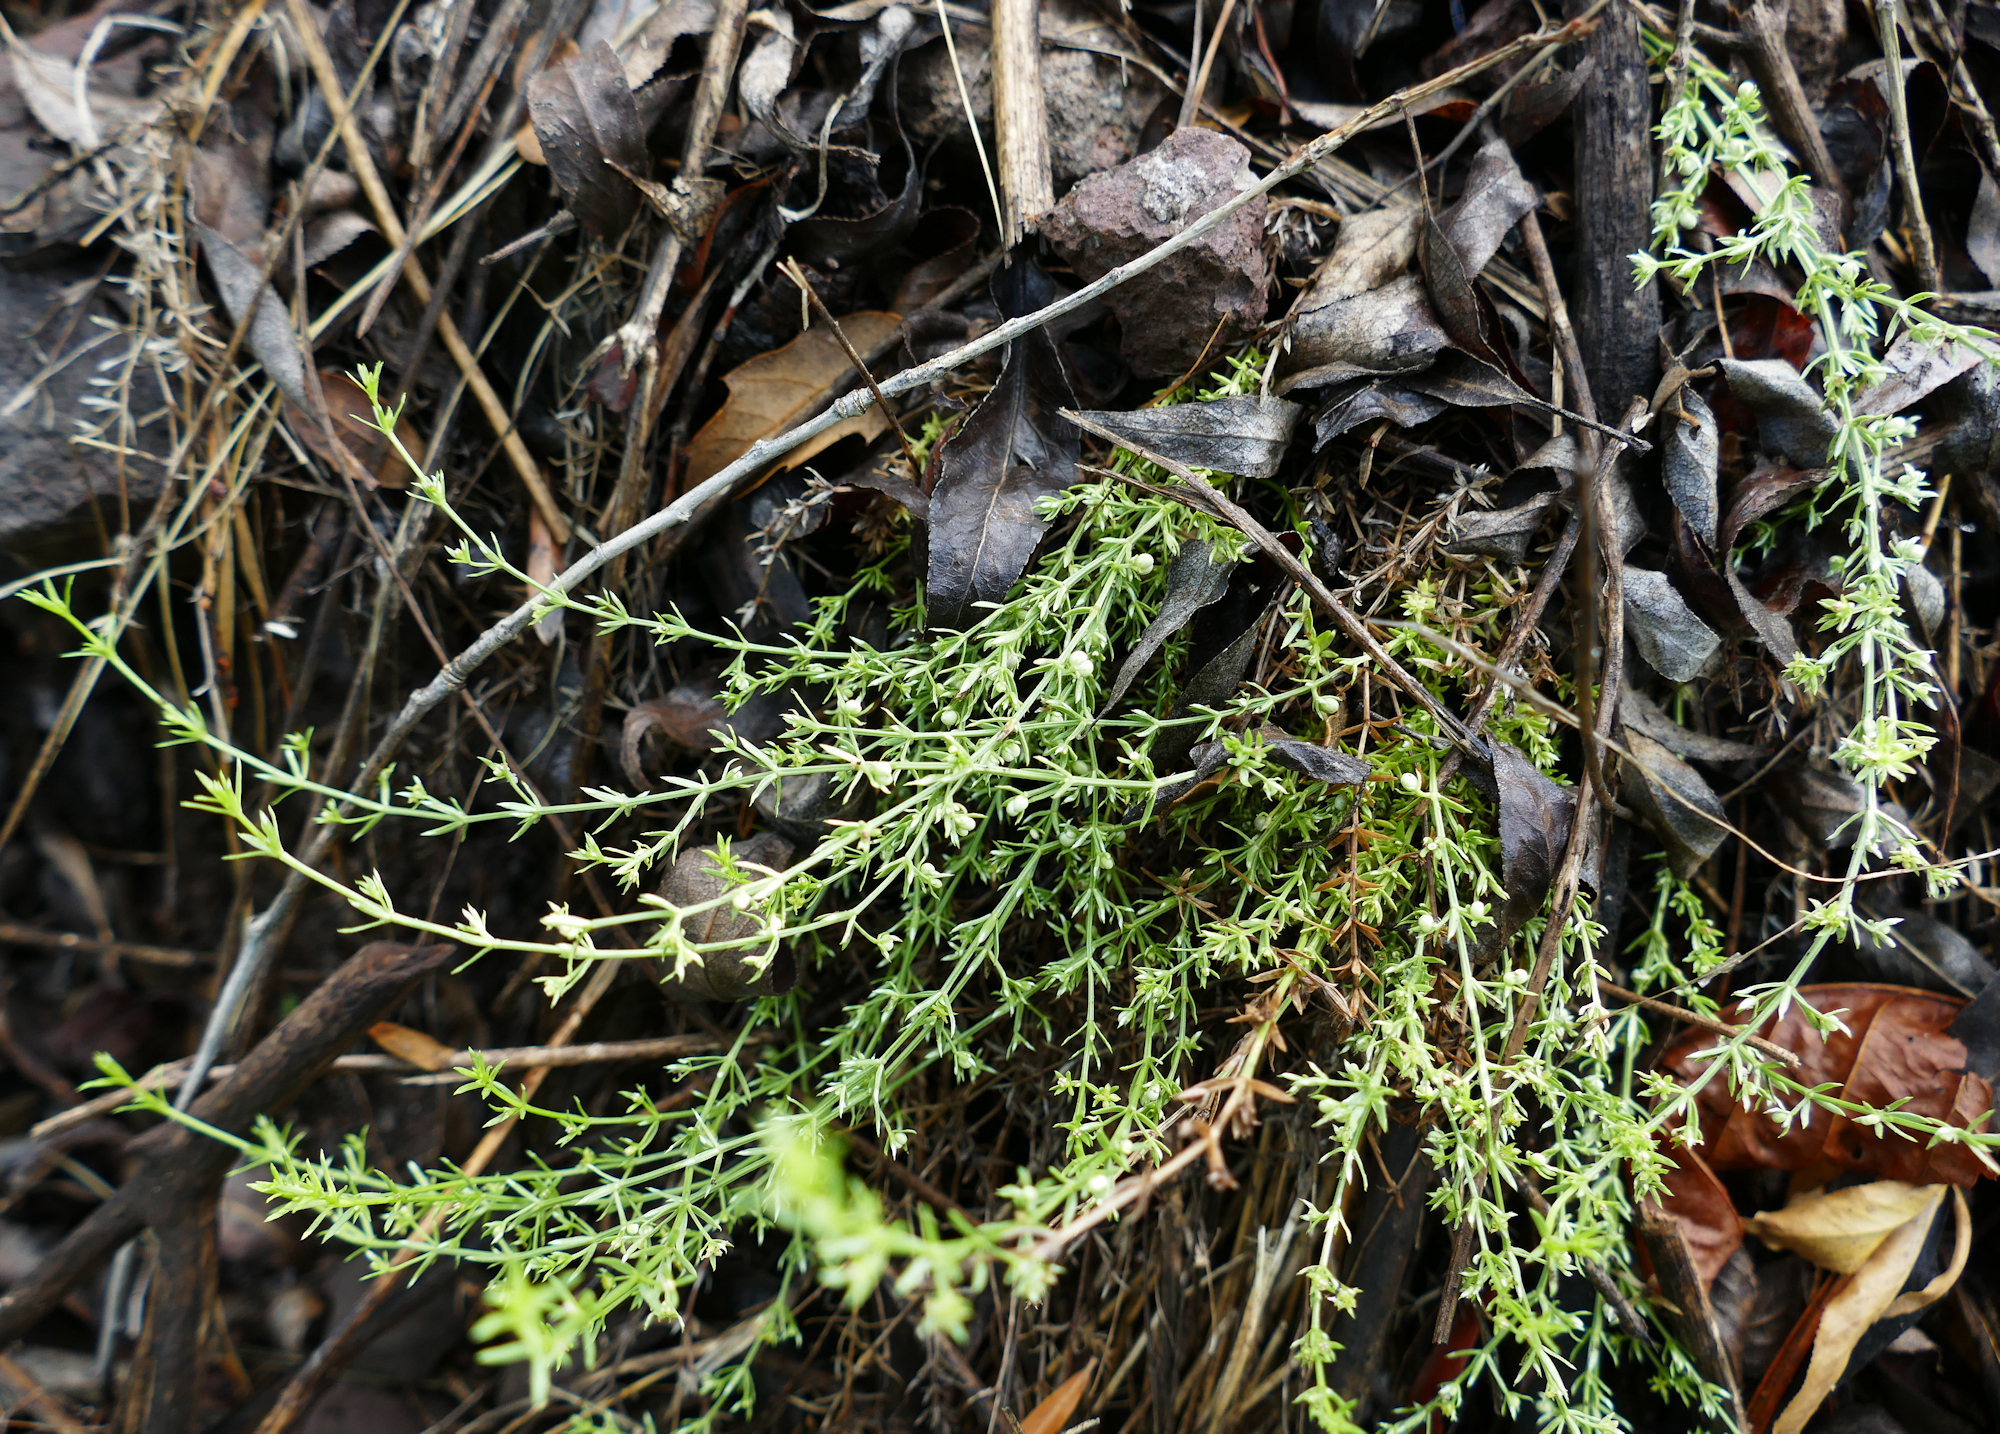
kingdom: Plantae
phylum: Tracheophyta
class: Magnoliopsida
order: Gentianales
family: Rubiaceae
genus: Galium
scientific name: Galium microphyllum
